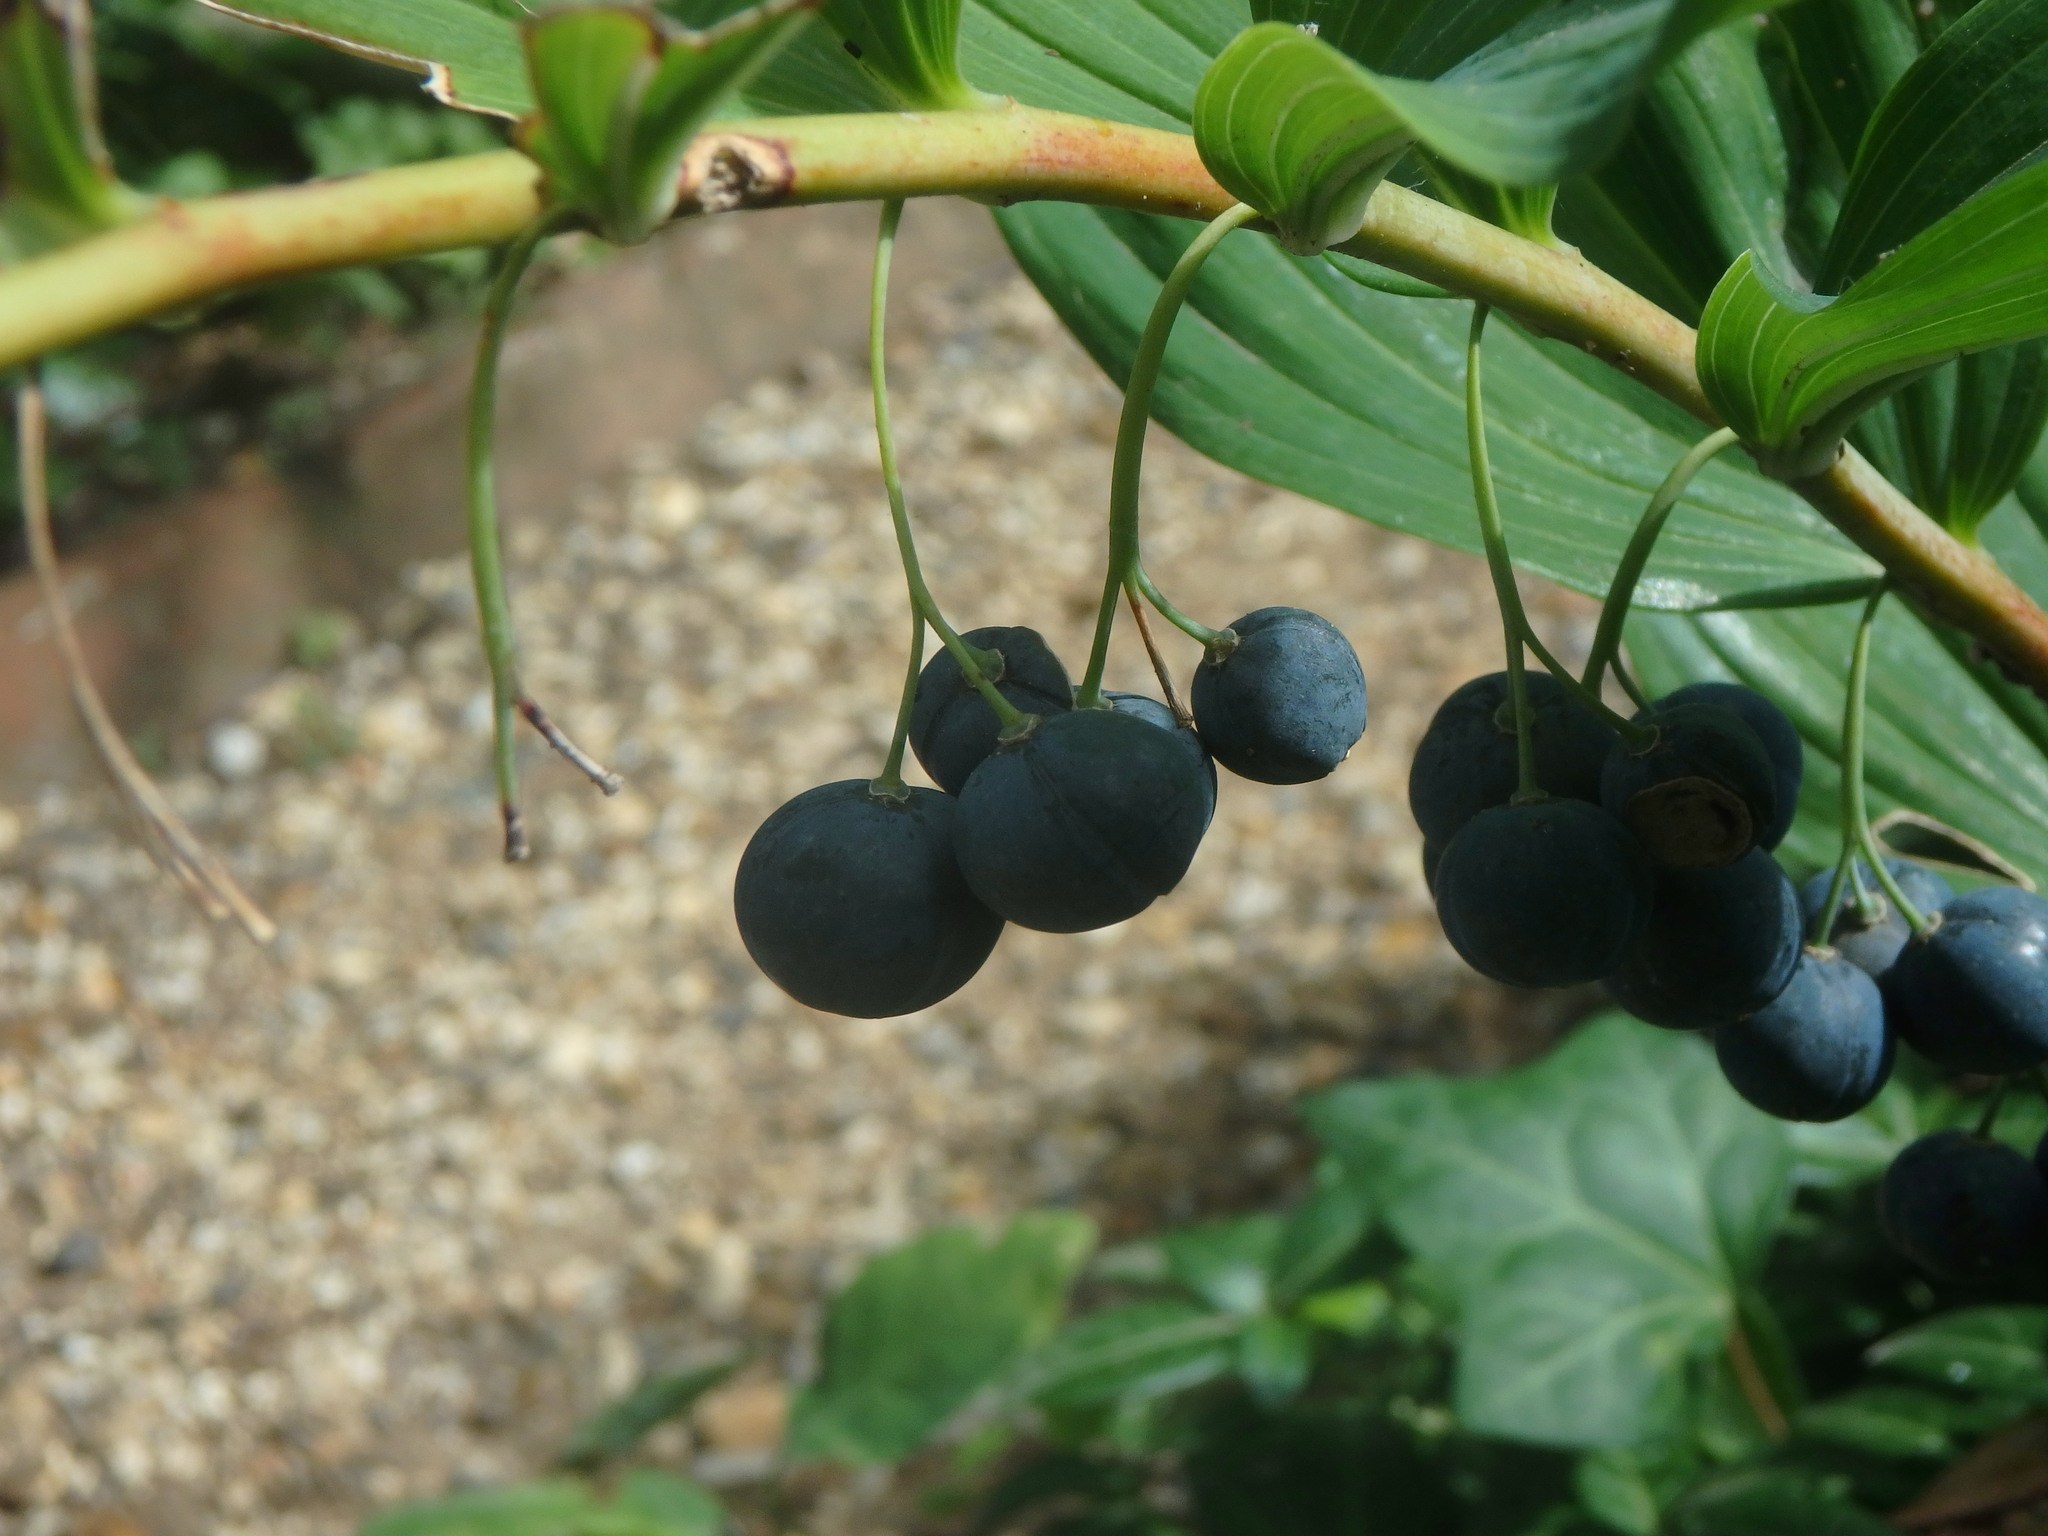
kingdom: Plantae
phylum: Tracheophyta
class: Liliopsida
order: Asparagales
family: Asparagaceae
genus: Polygonatum
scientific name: Polygonatum multiflorum
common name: Solomon's-seal
